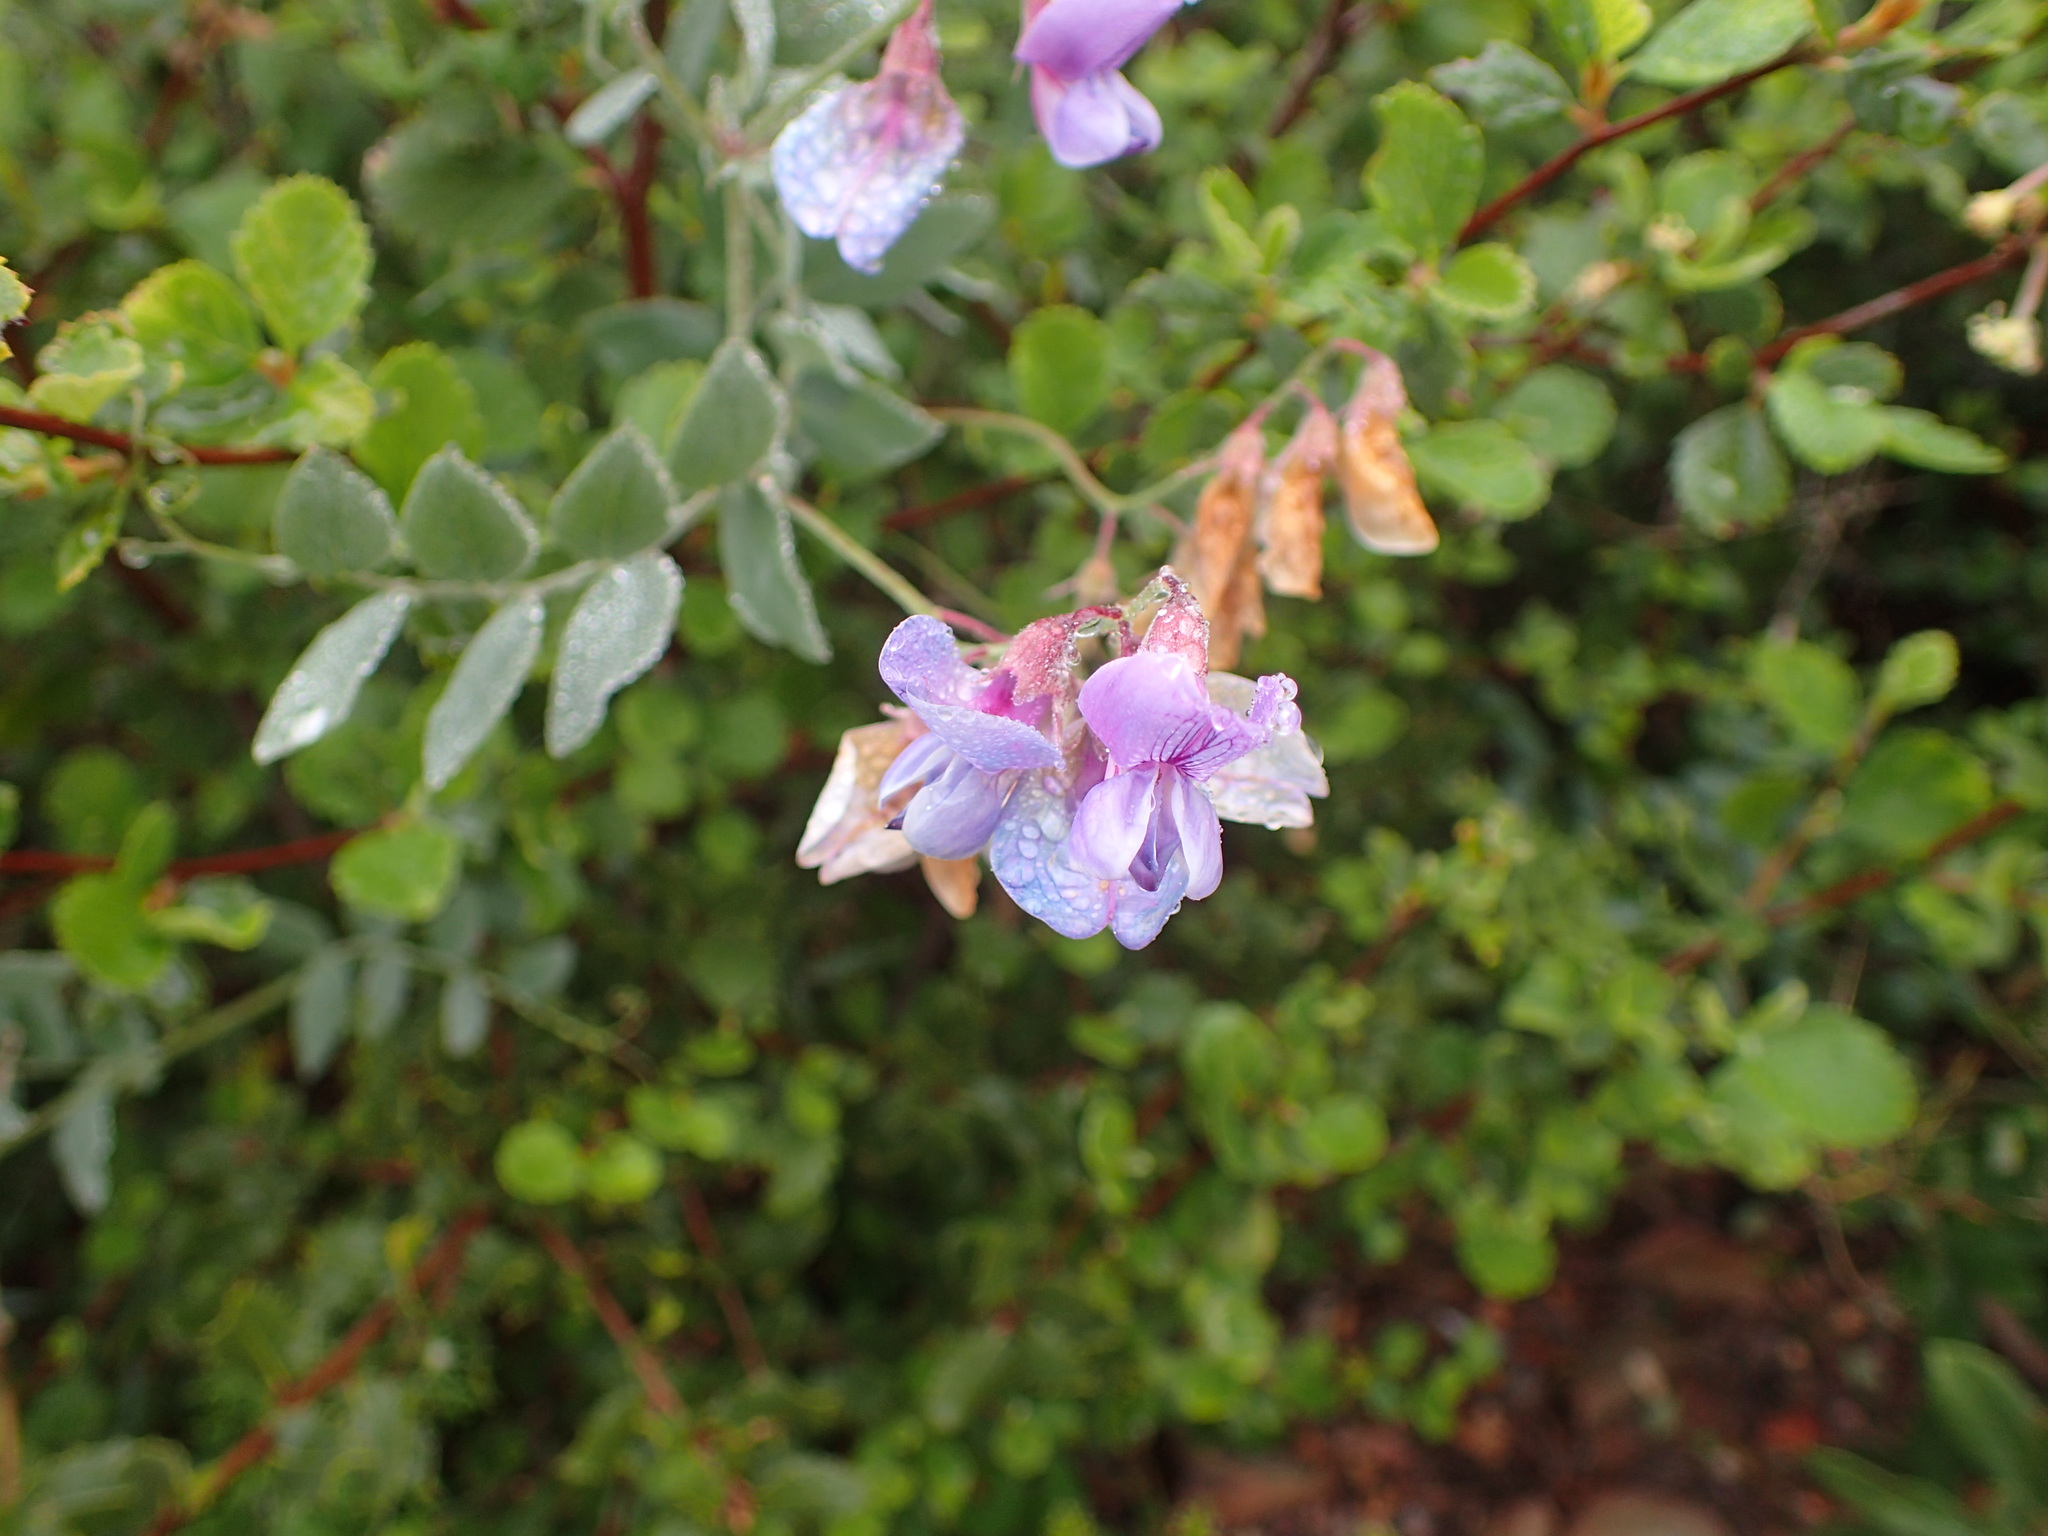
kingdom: Plantae
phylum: Tracheophyta
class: Magnoliopsida
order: Fabales
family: Fabaceae
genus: Lathyrus
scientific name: Lathyrus vestitus
